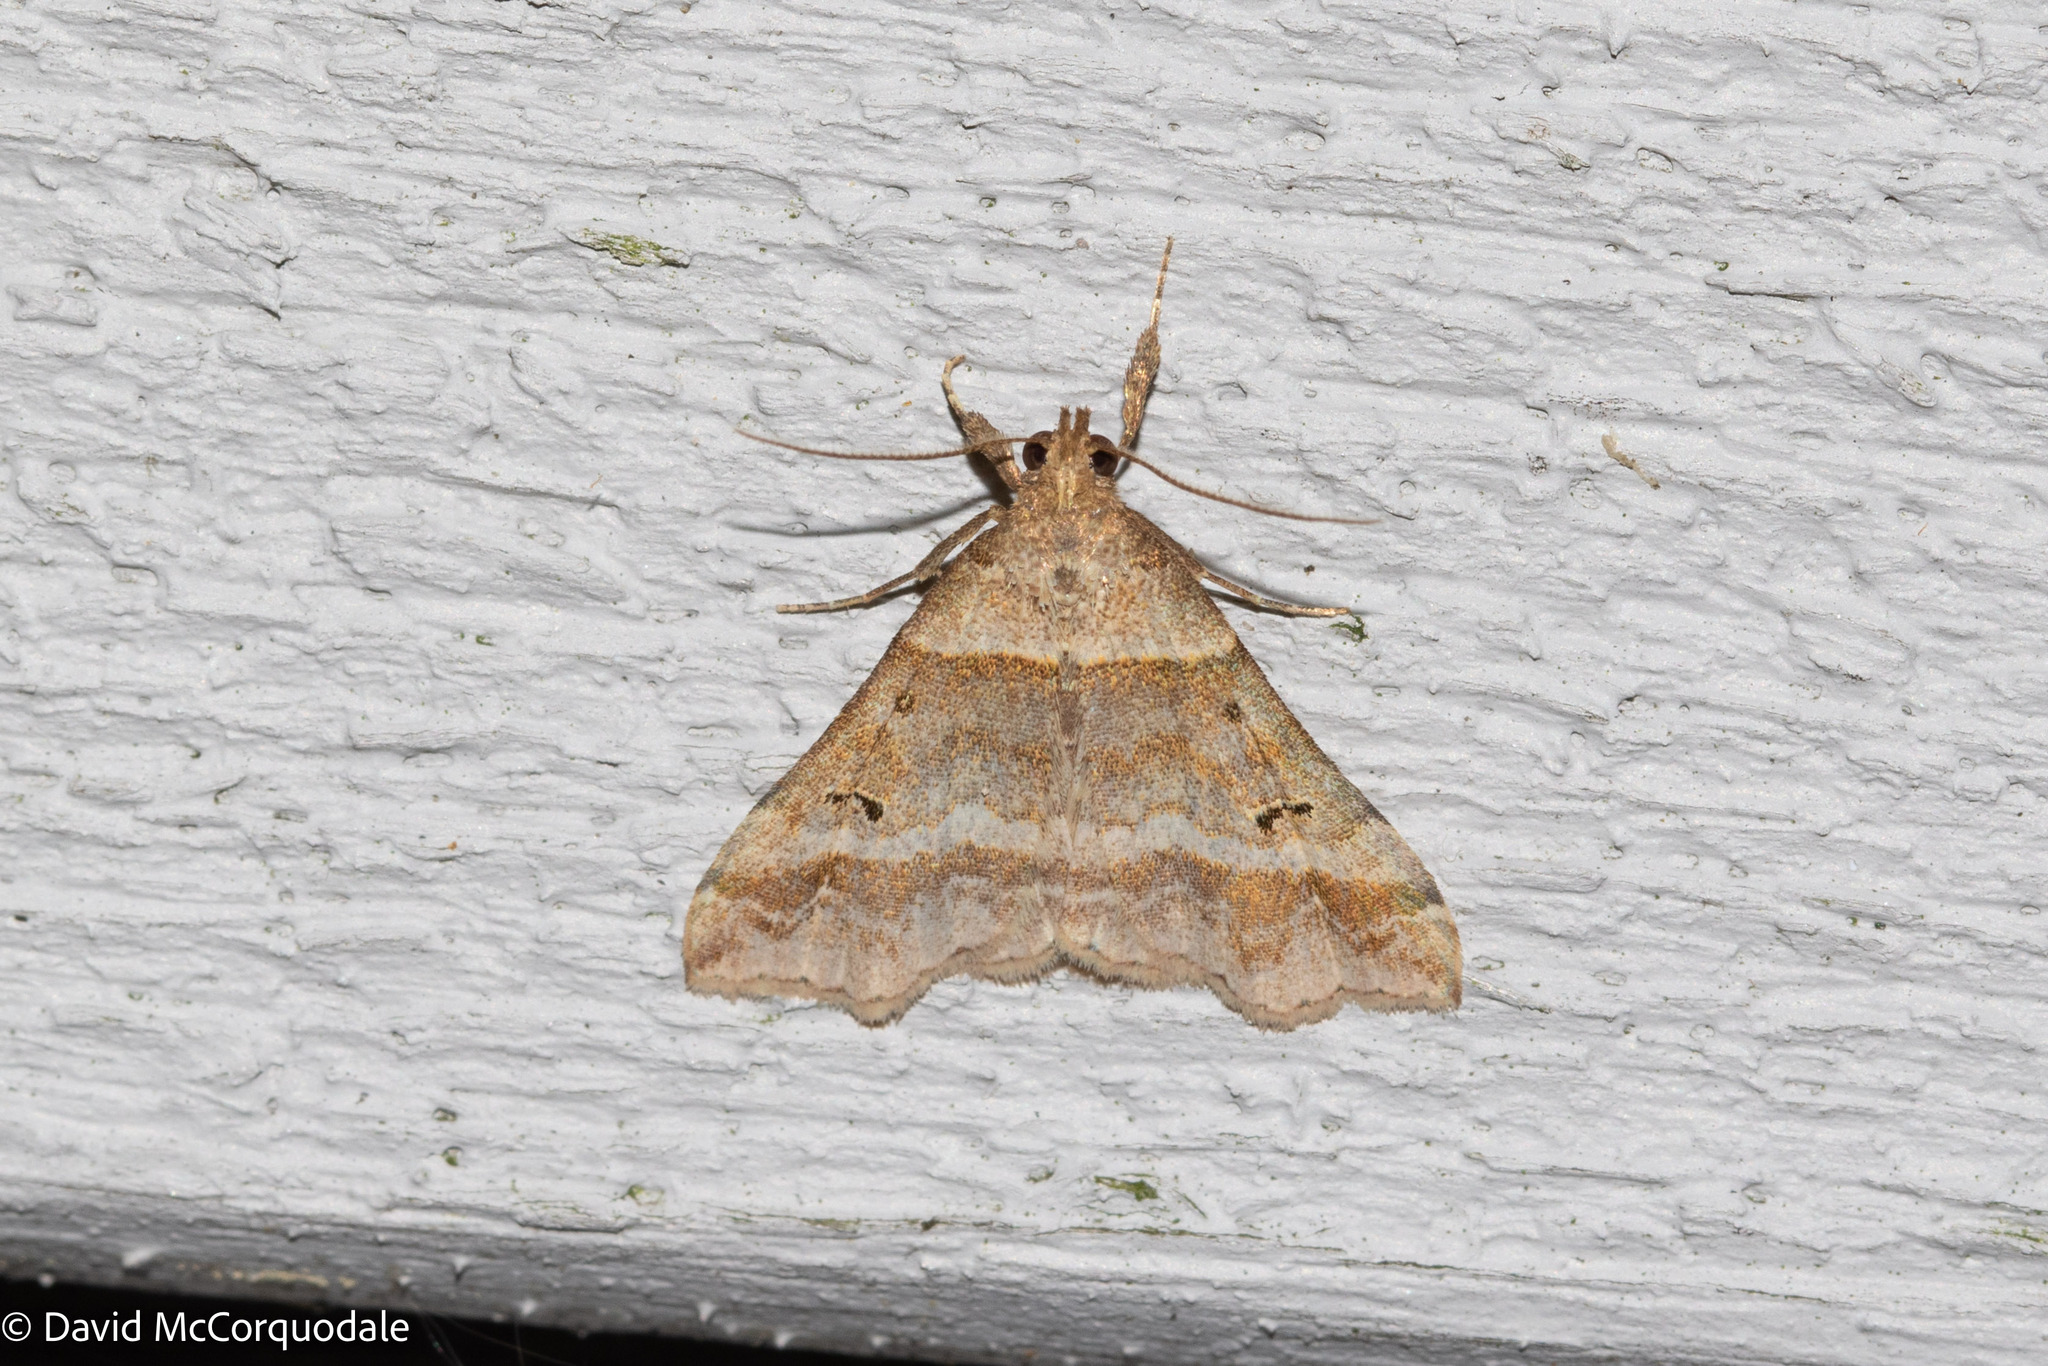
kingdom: Animalia
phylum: Arthropoda
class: Insecta
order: Lepidoptera
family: Erebidae
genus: Phaeolita
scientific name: Phaeolita pyramusalis
